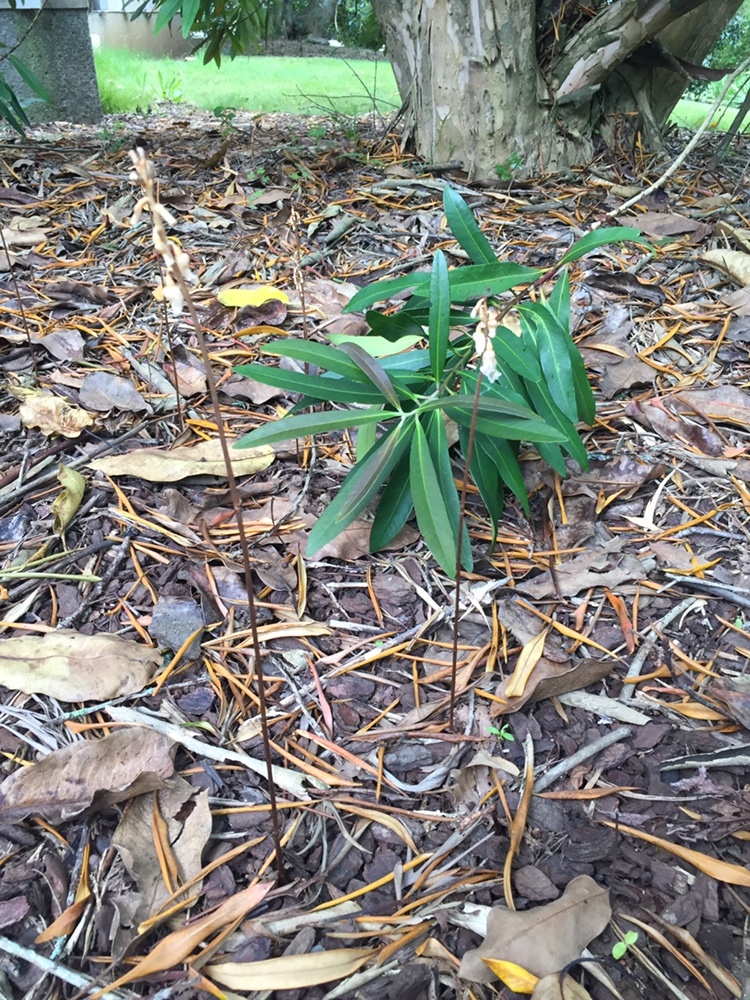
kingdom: Plantae
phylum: Tracheophyta
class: Liliopsida
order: Asparagales
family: Orchidaceae
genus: Gastrodia
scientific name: Gastrodia sesamoides
